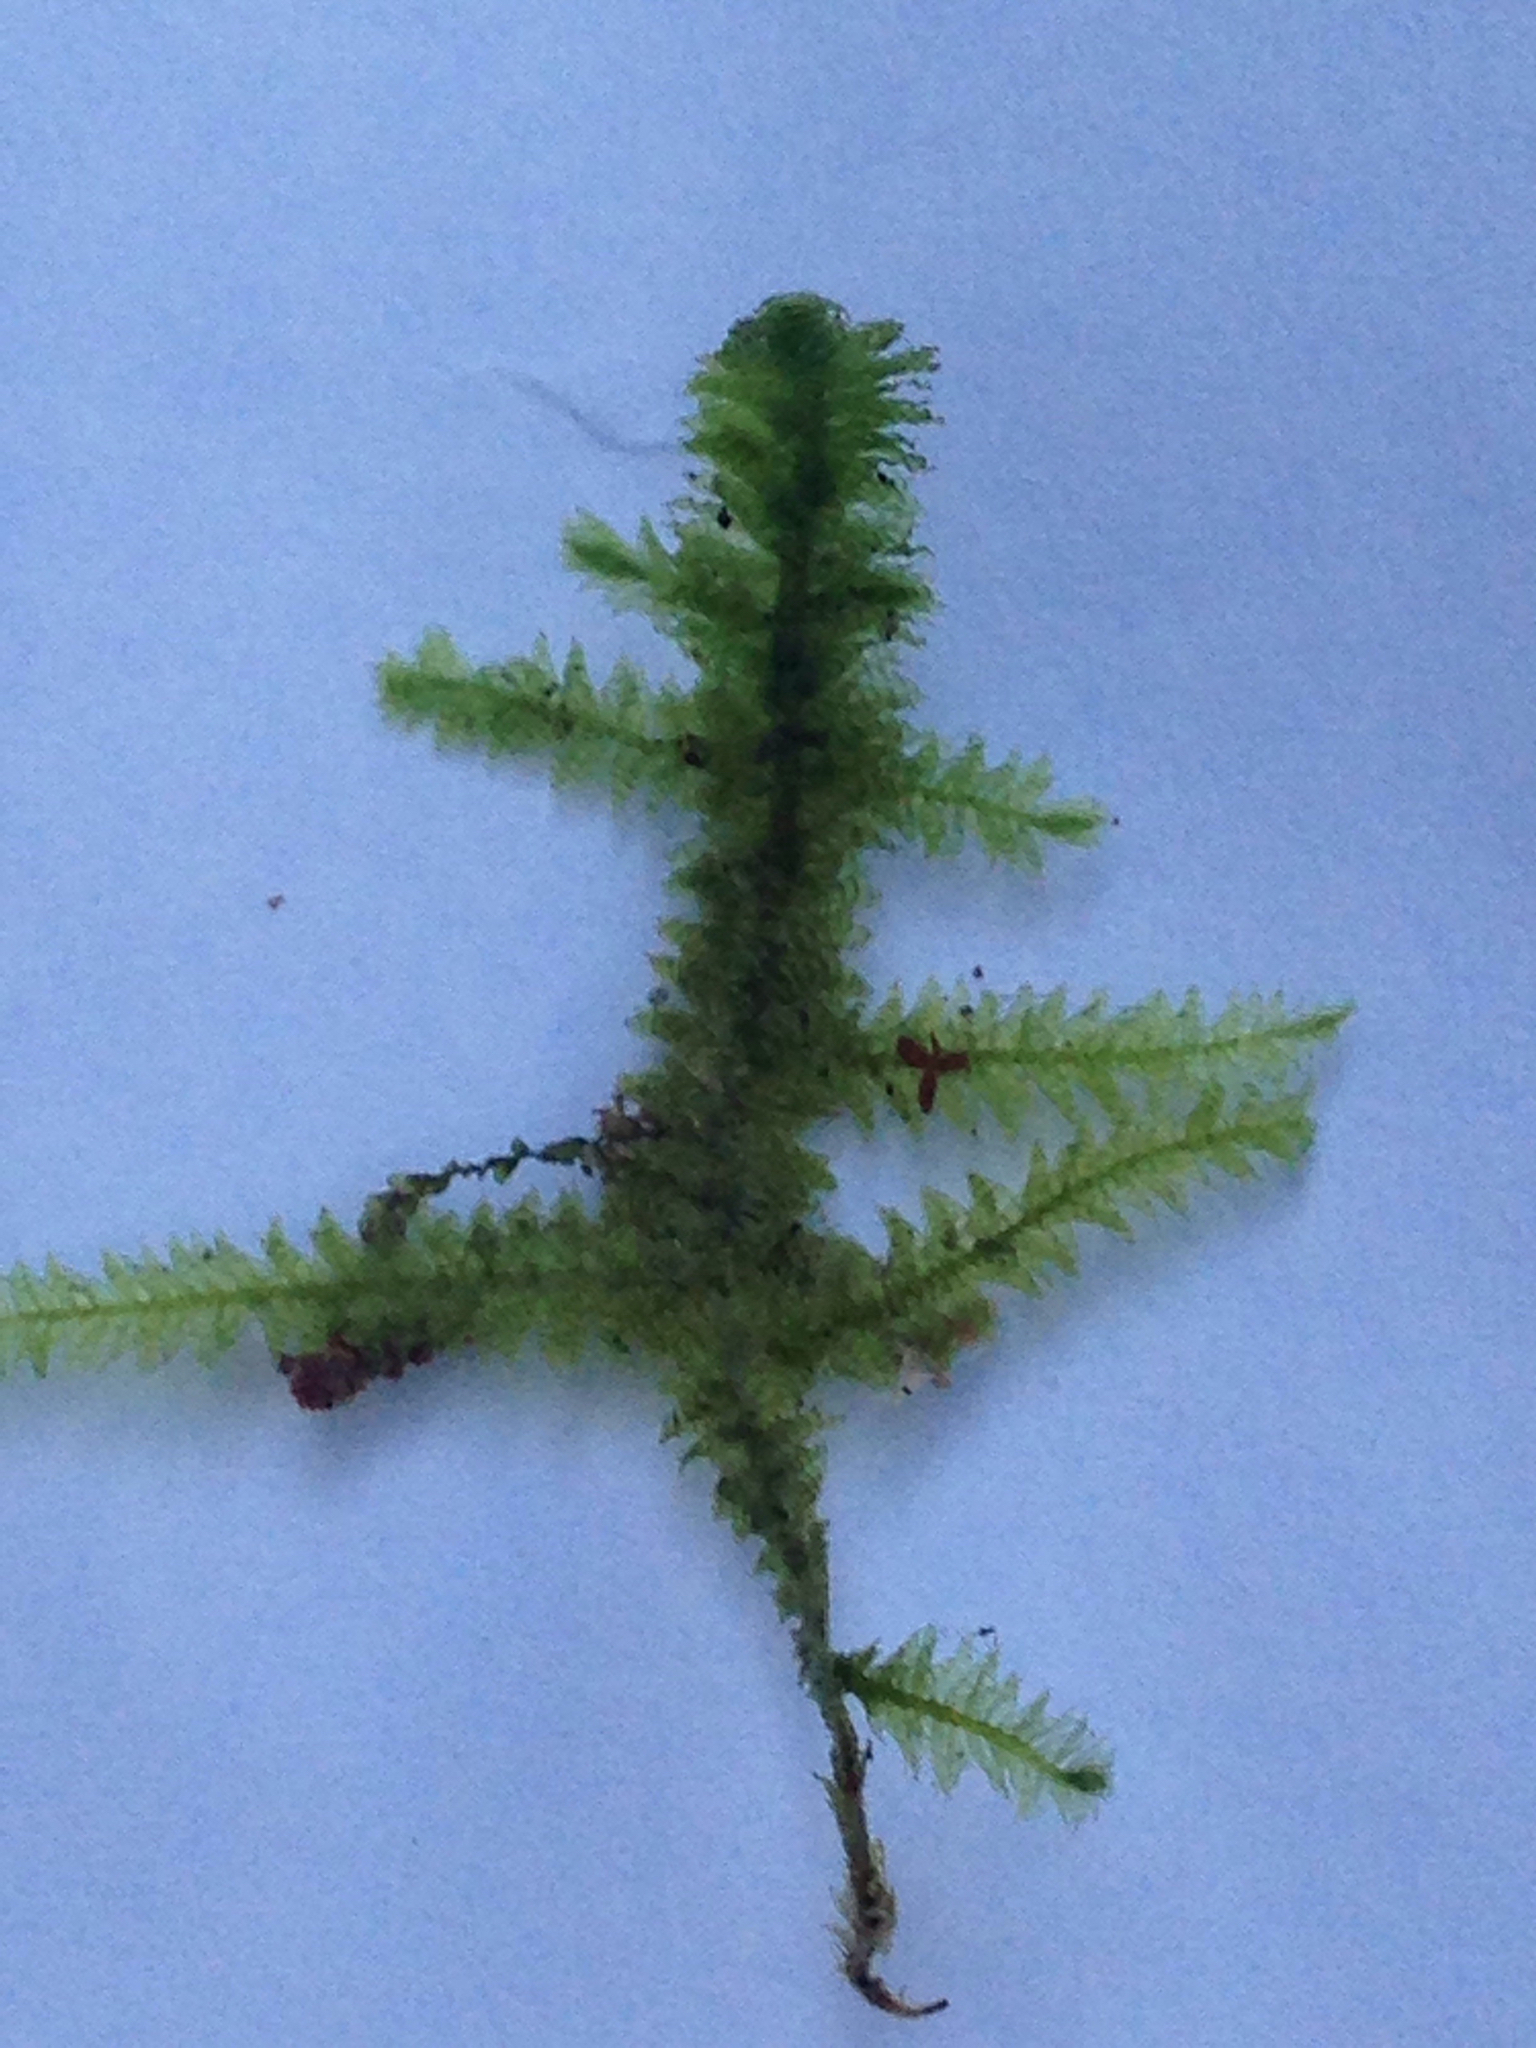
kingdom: Plantae
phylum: Bryophyta
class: Bryopsida
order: Hypnales
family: Neckeraceae
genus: Neckera
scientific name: Neckera douglasii
